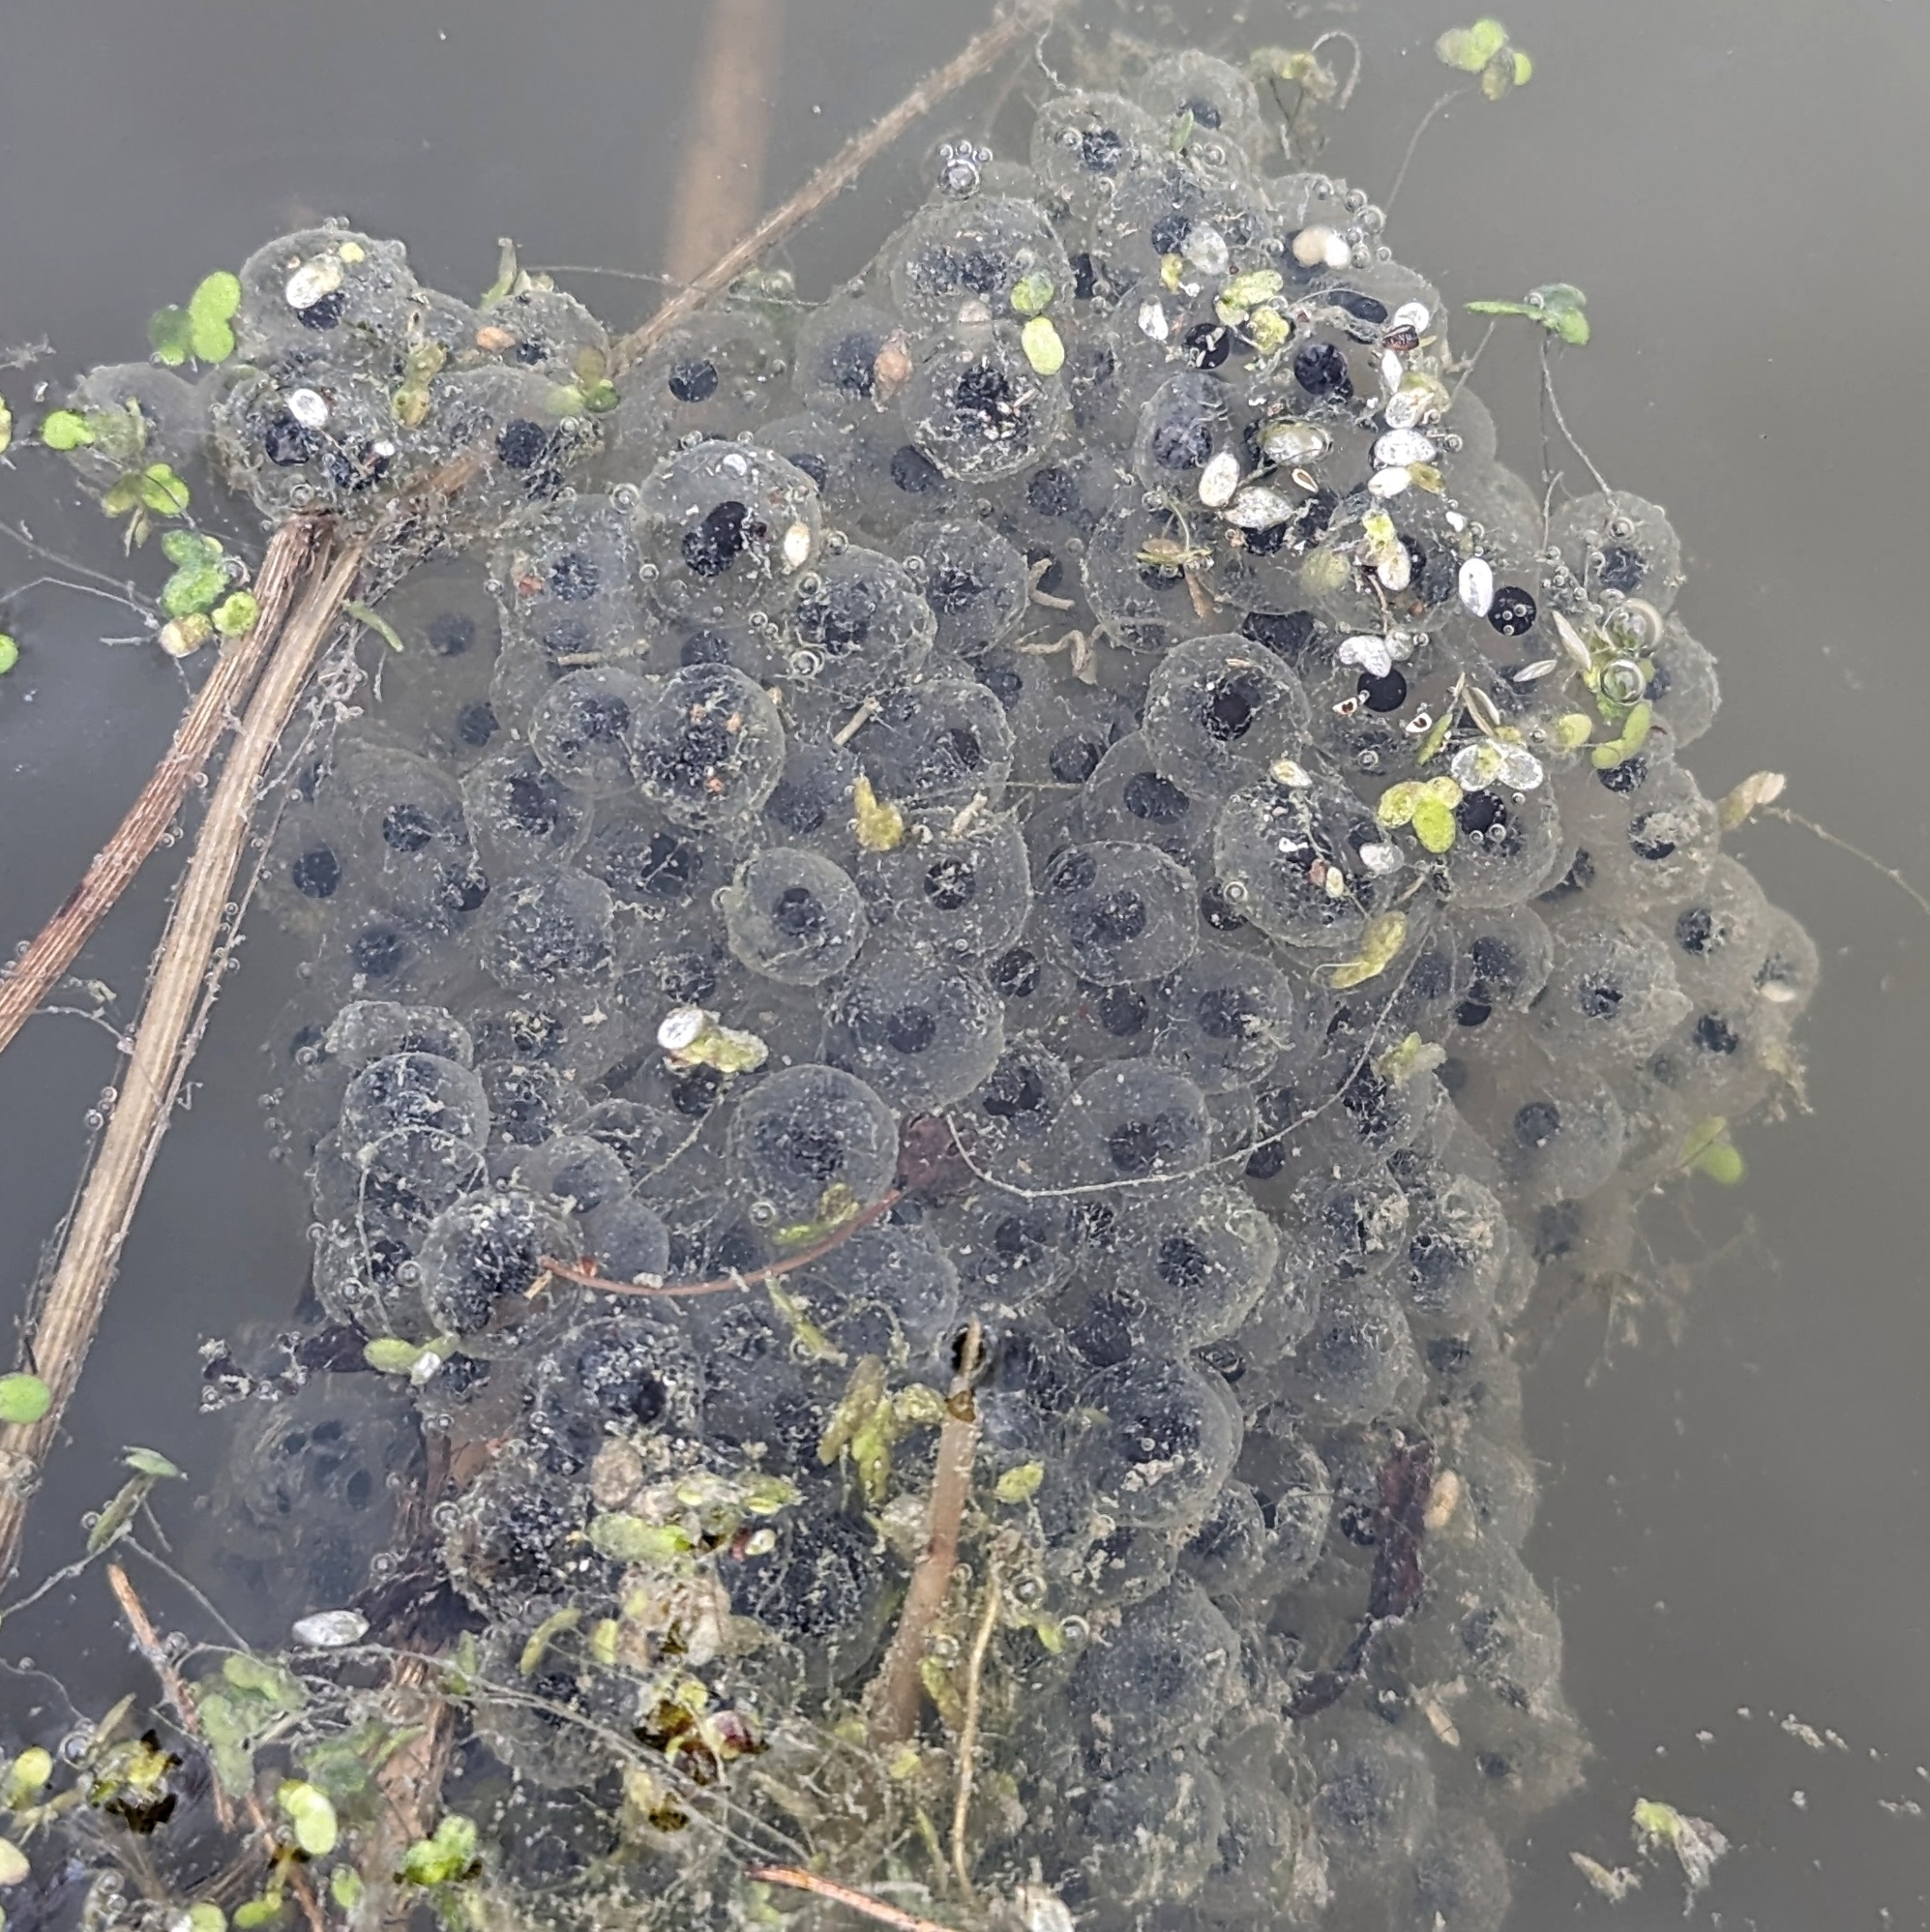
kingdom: Animalia
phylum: Chordata
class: Amphibia
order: Anura
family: Ranidae
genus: Lithobates
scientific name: Lithobates sylvaticus
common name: Wood frog
